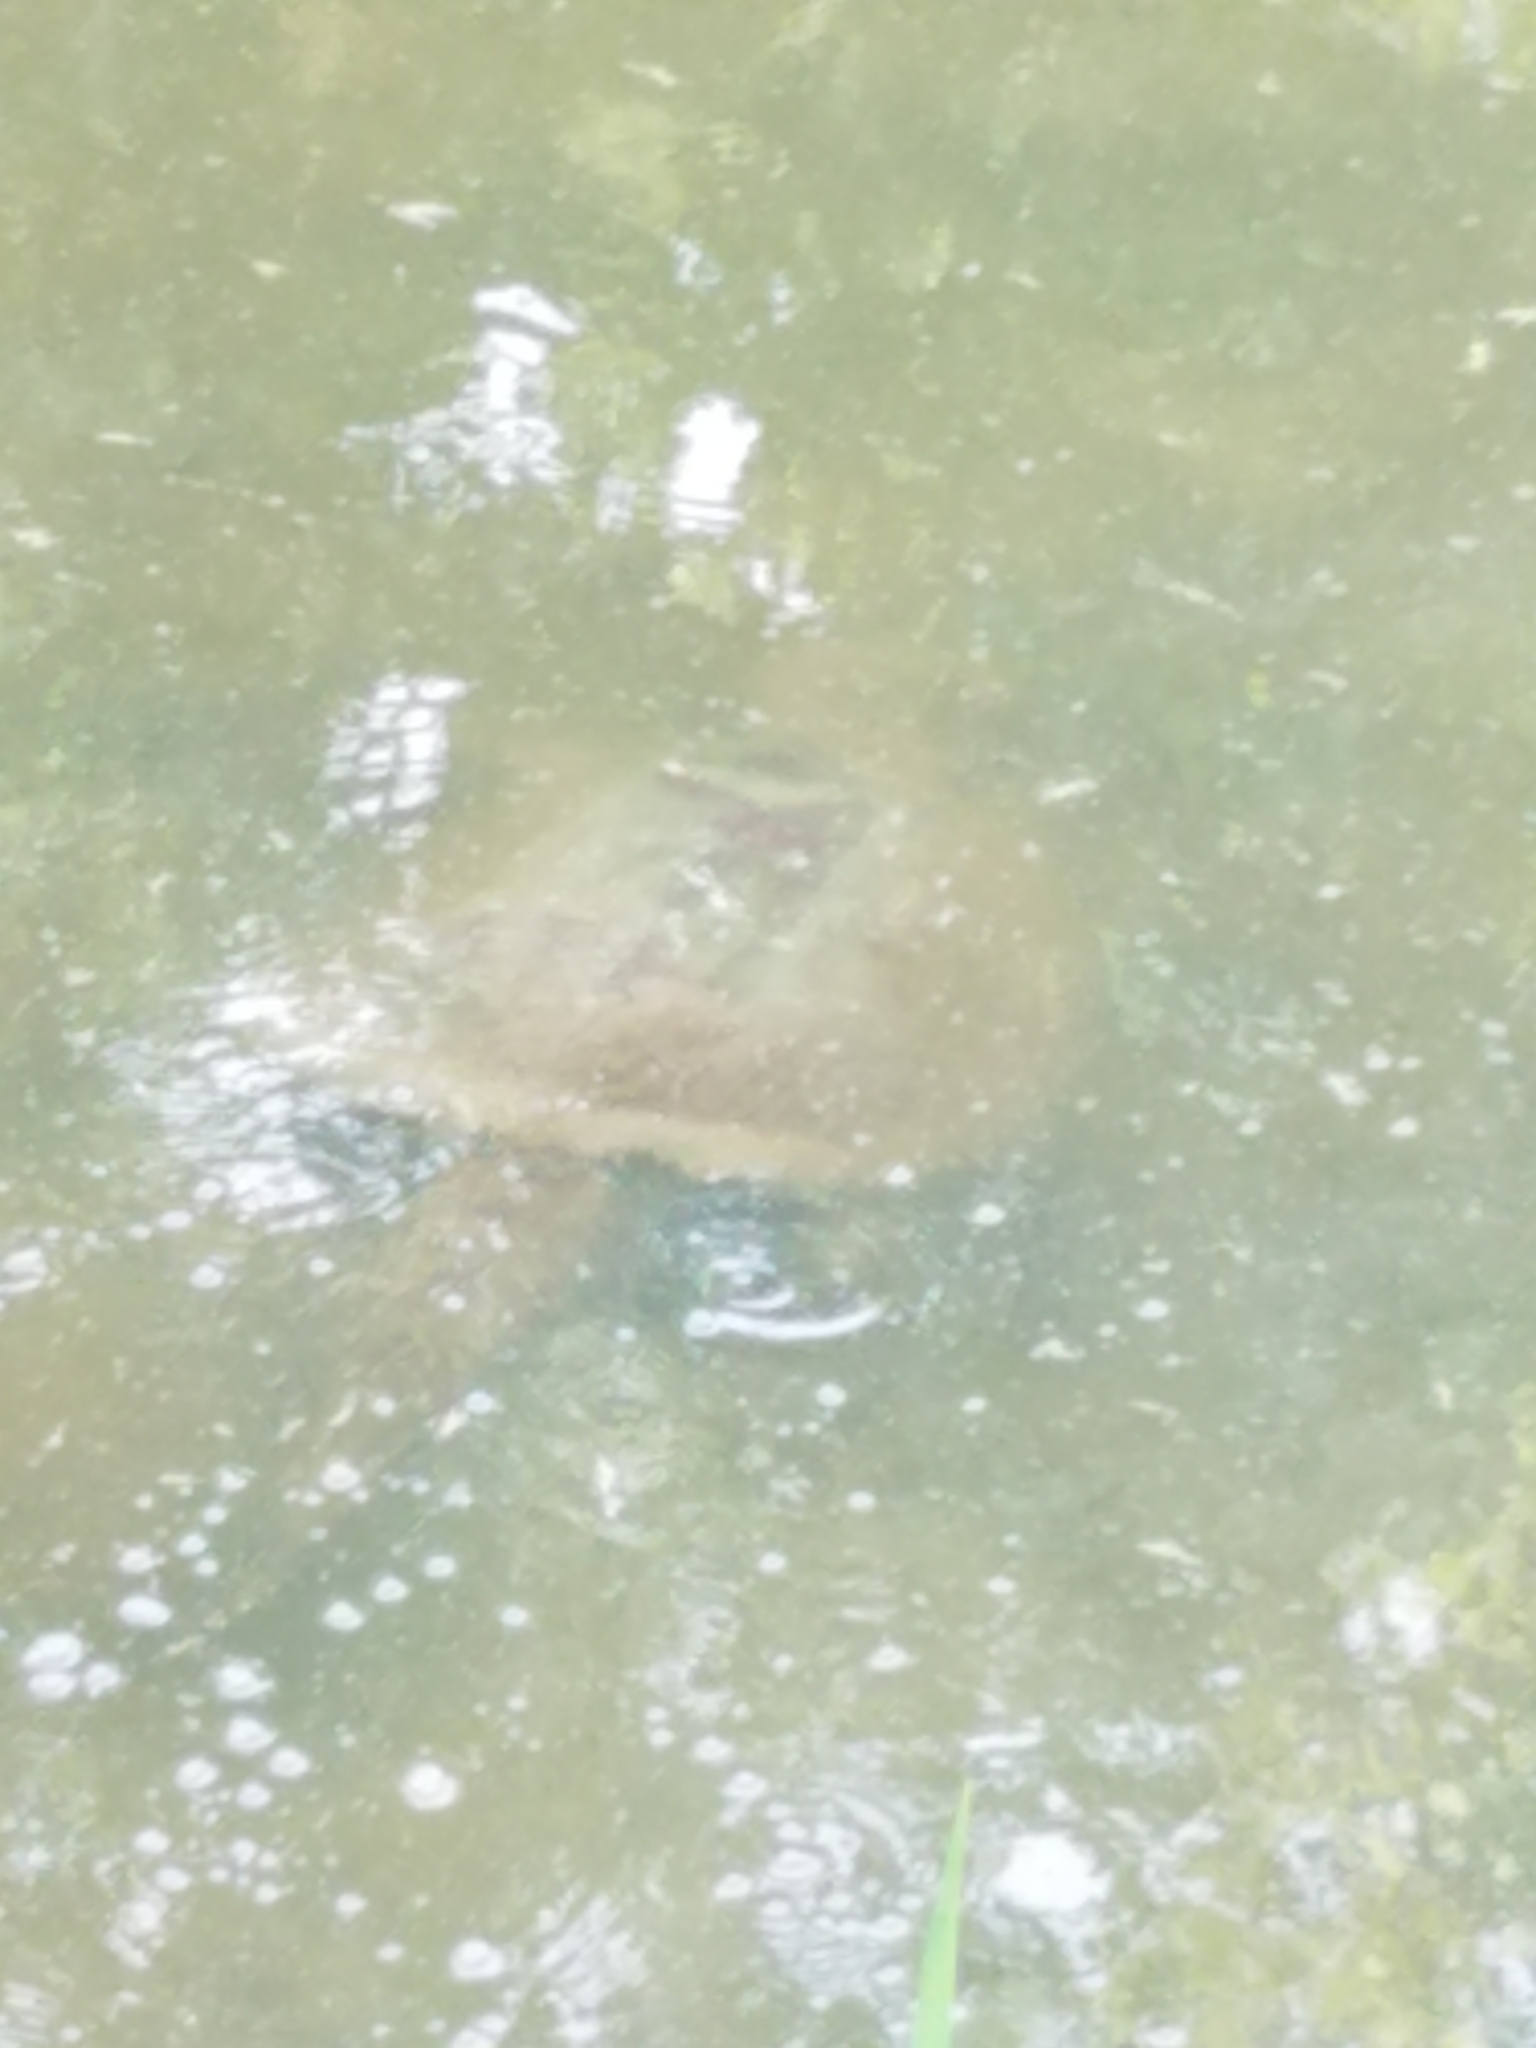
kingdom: Animalia
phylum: Chordata
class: Testudines
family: Chelydridae
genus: Chelydra
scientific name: Chelydra serpentina
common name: Common snapping turtle
